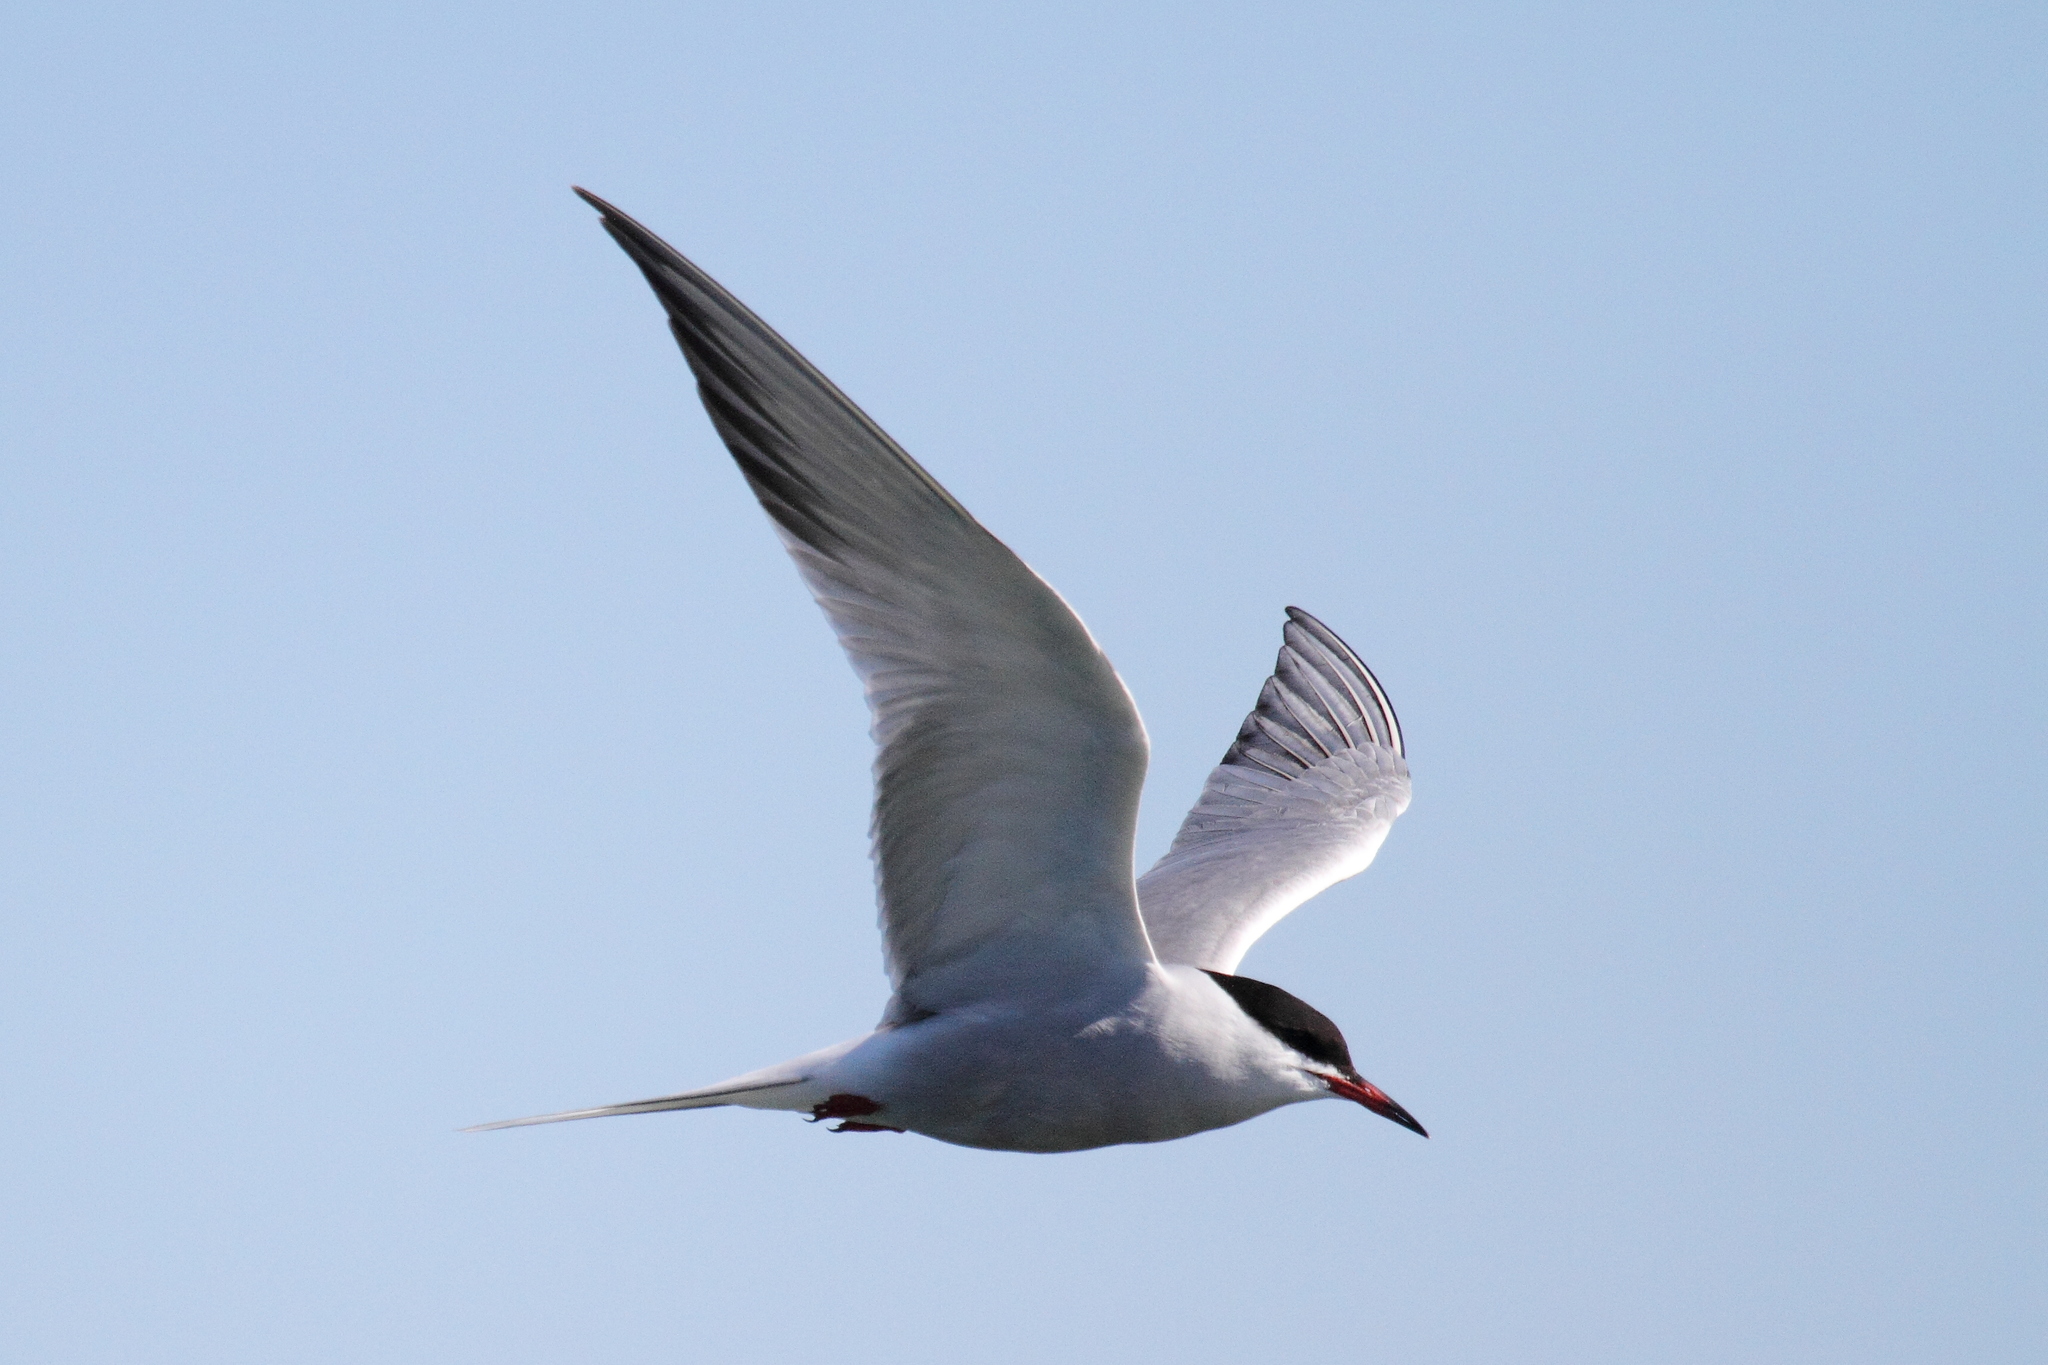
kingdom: Animalia
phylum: Chordata
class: Aves
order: Charadriiformes
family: Laridae
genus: Sterna
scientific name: Sterna hirundo
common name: Common tern
